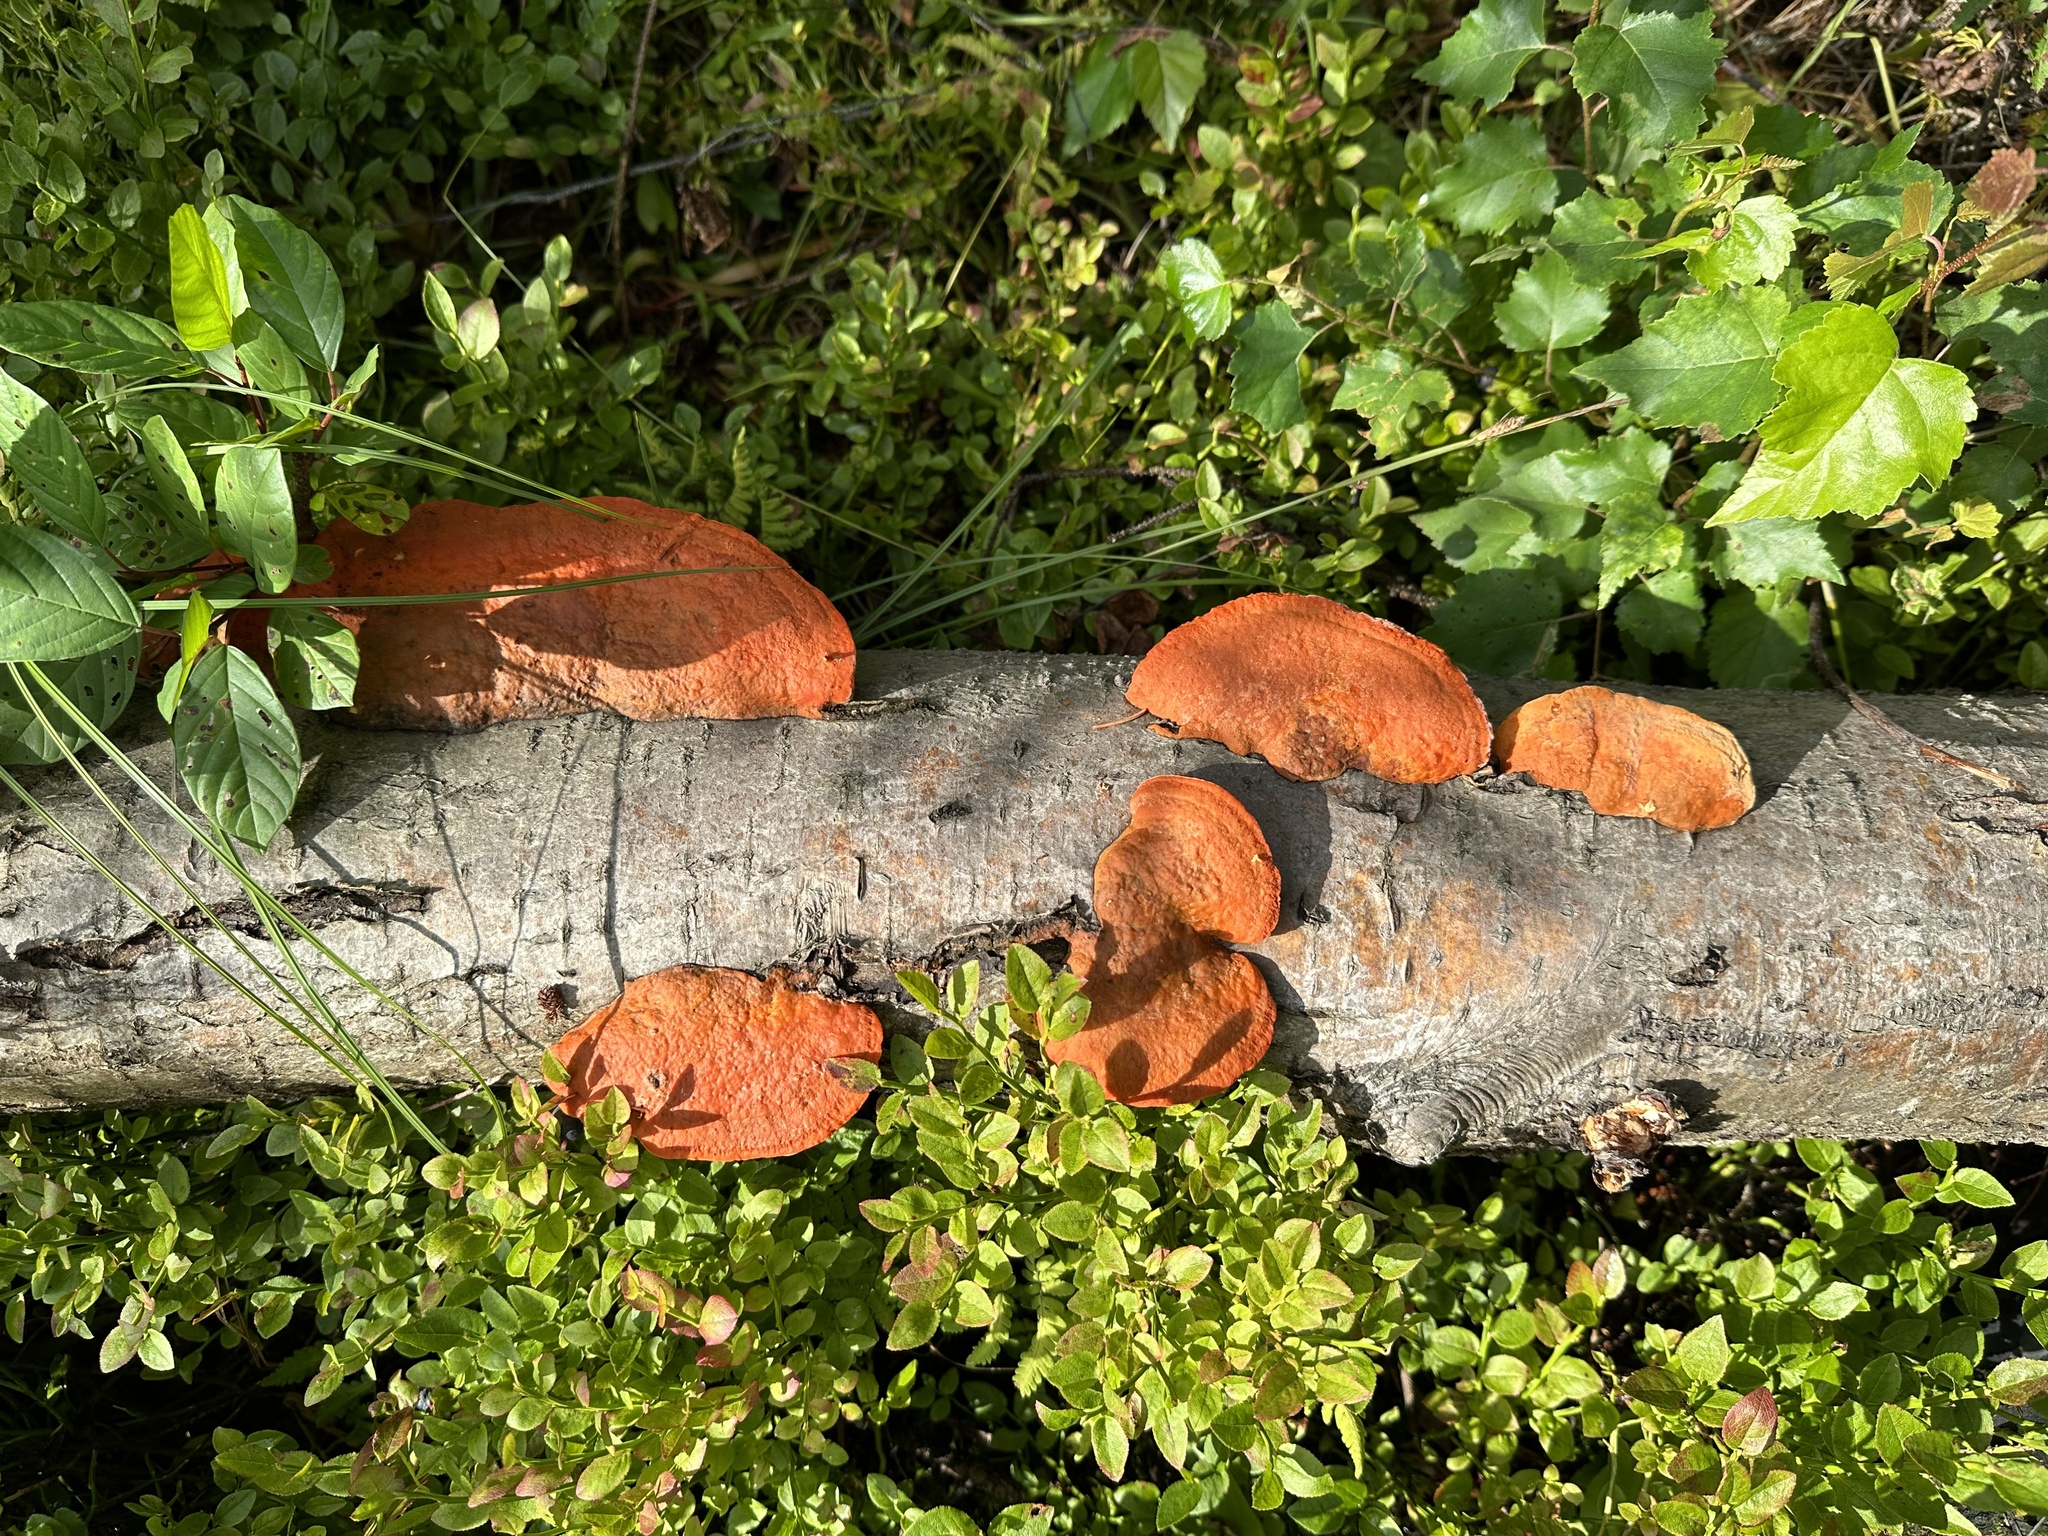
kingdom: Fungi
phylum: Basidiomycota
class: Agaricomycetes
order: Polyporales
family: Polyporaceae
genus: Trametes
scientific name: Trametes cinnabarina
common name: Northern cinnabar polypore
